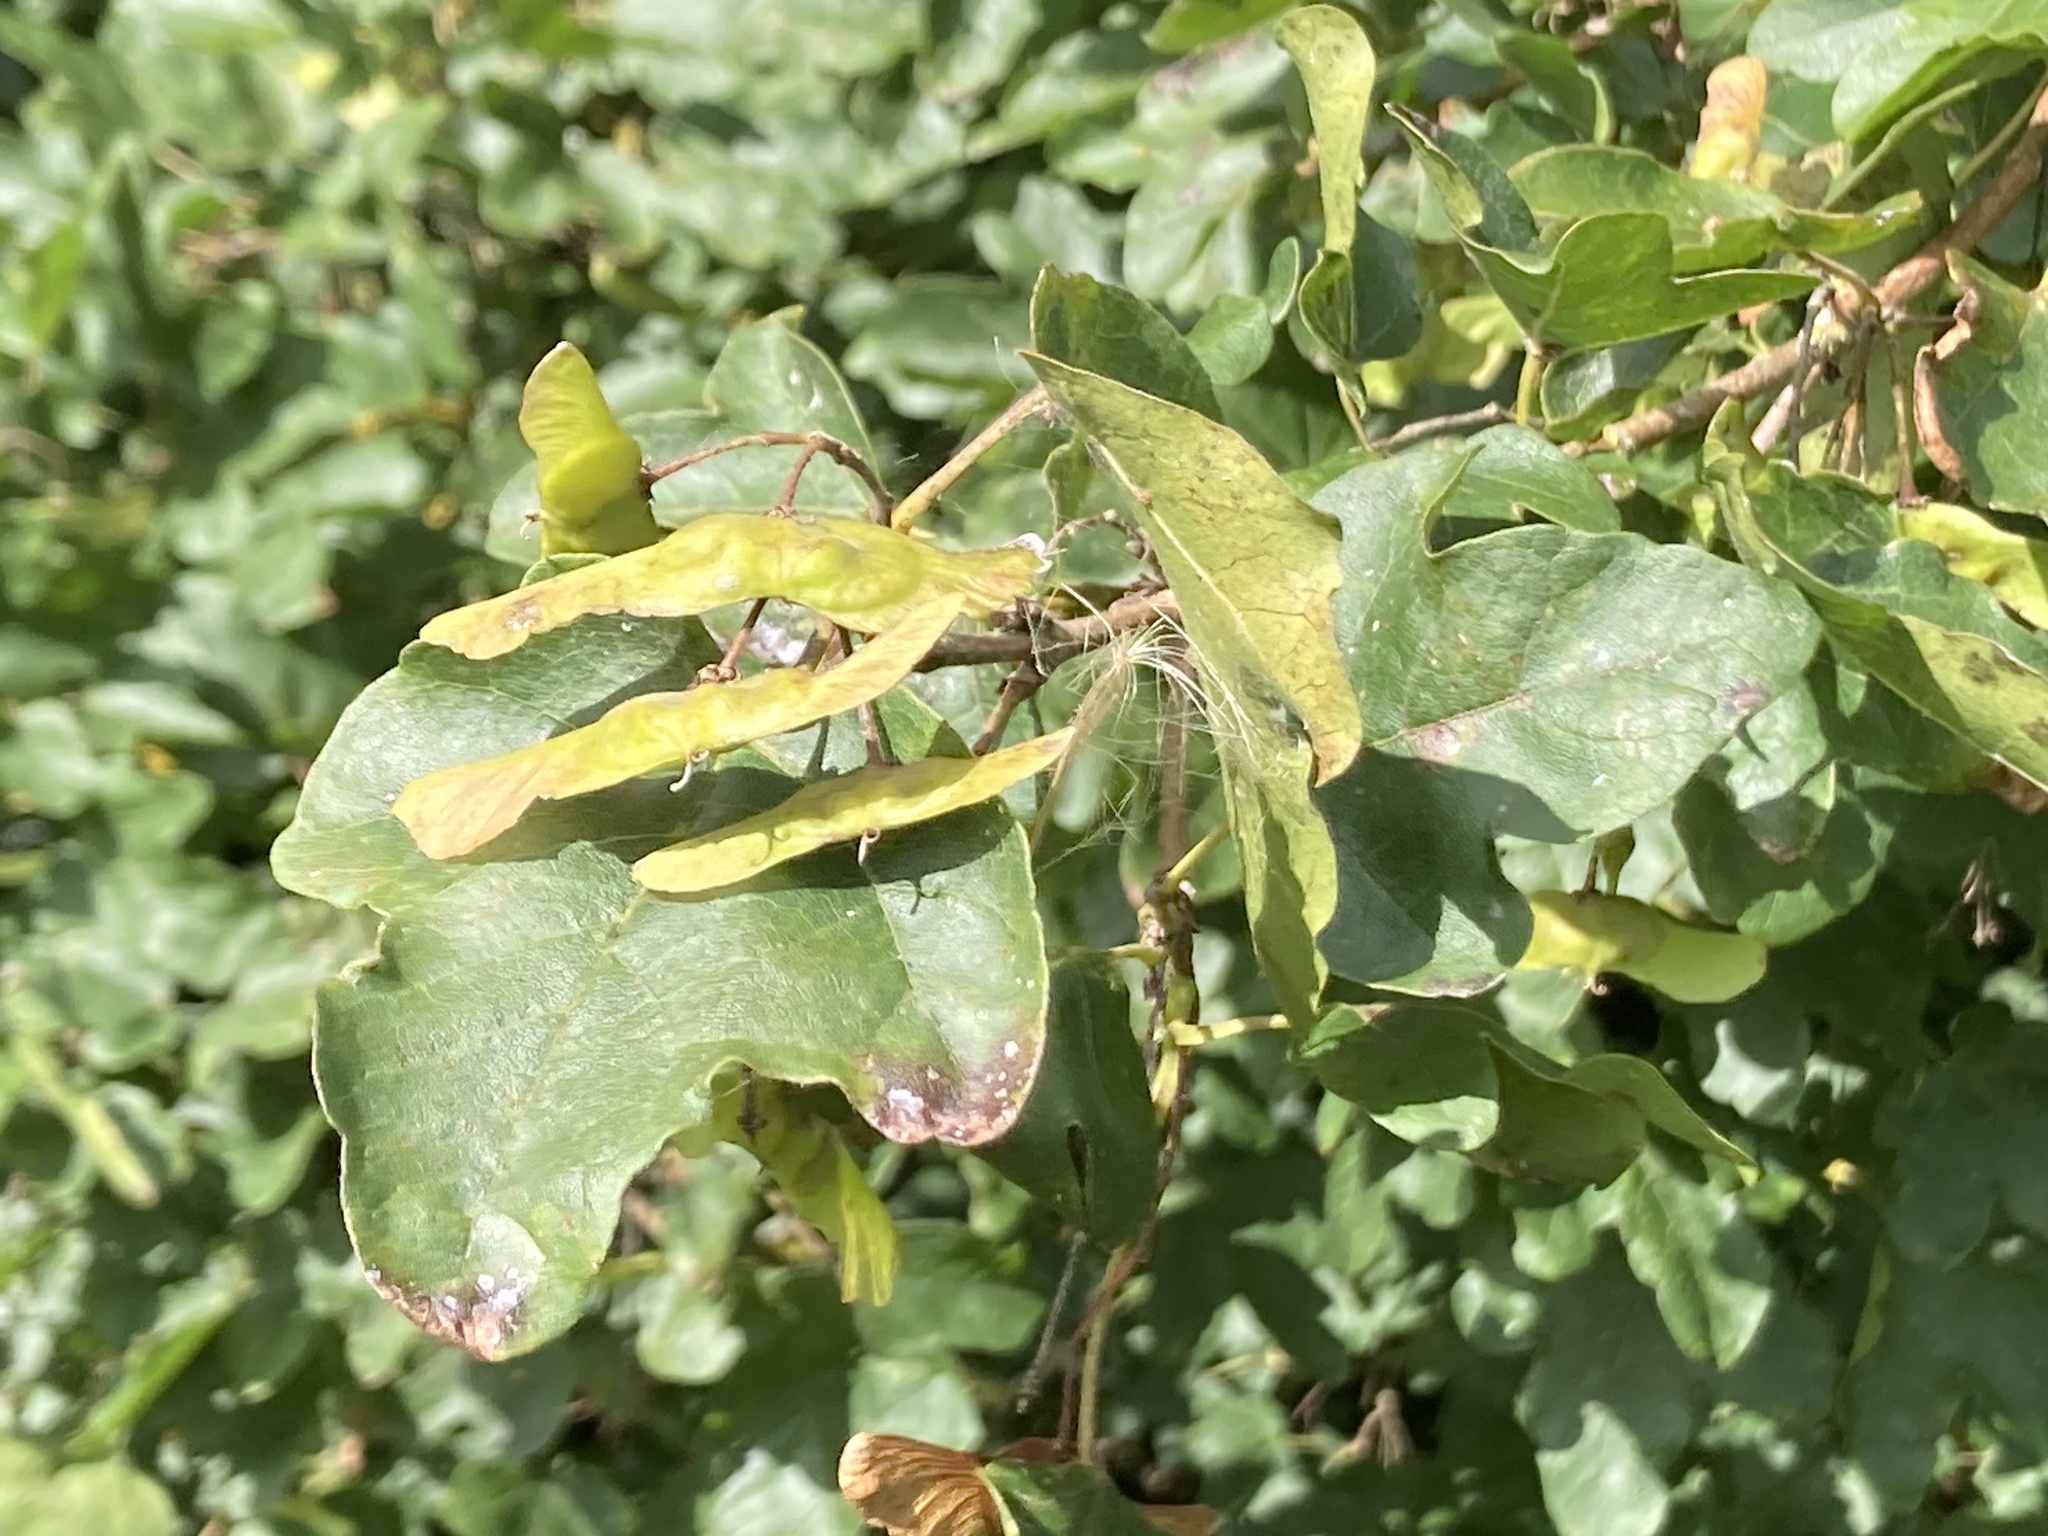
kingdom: Plantae
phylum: Tracheophyta
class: Magnoliopsida
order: Sapindales
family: Sapindaceae
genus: Acer
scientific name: Acer campestre
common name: Field maple
